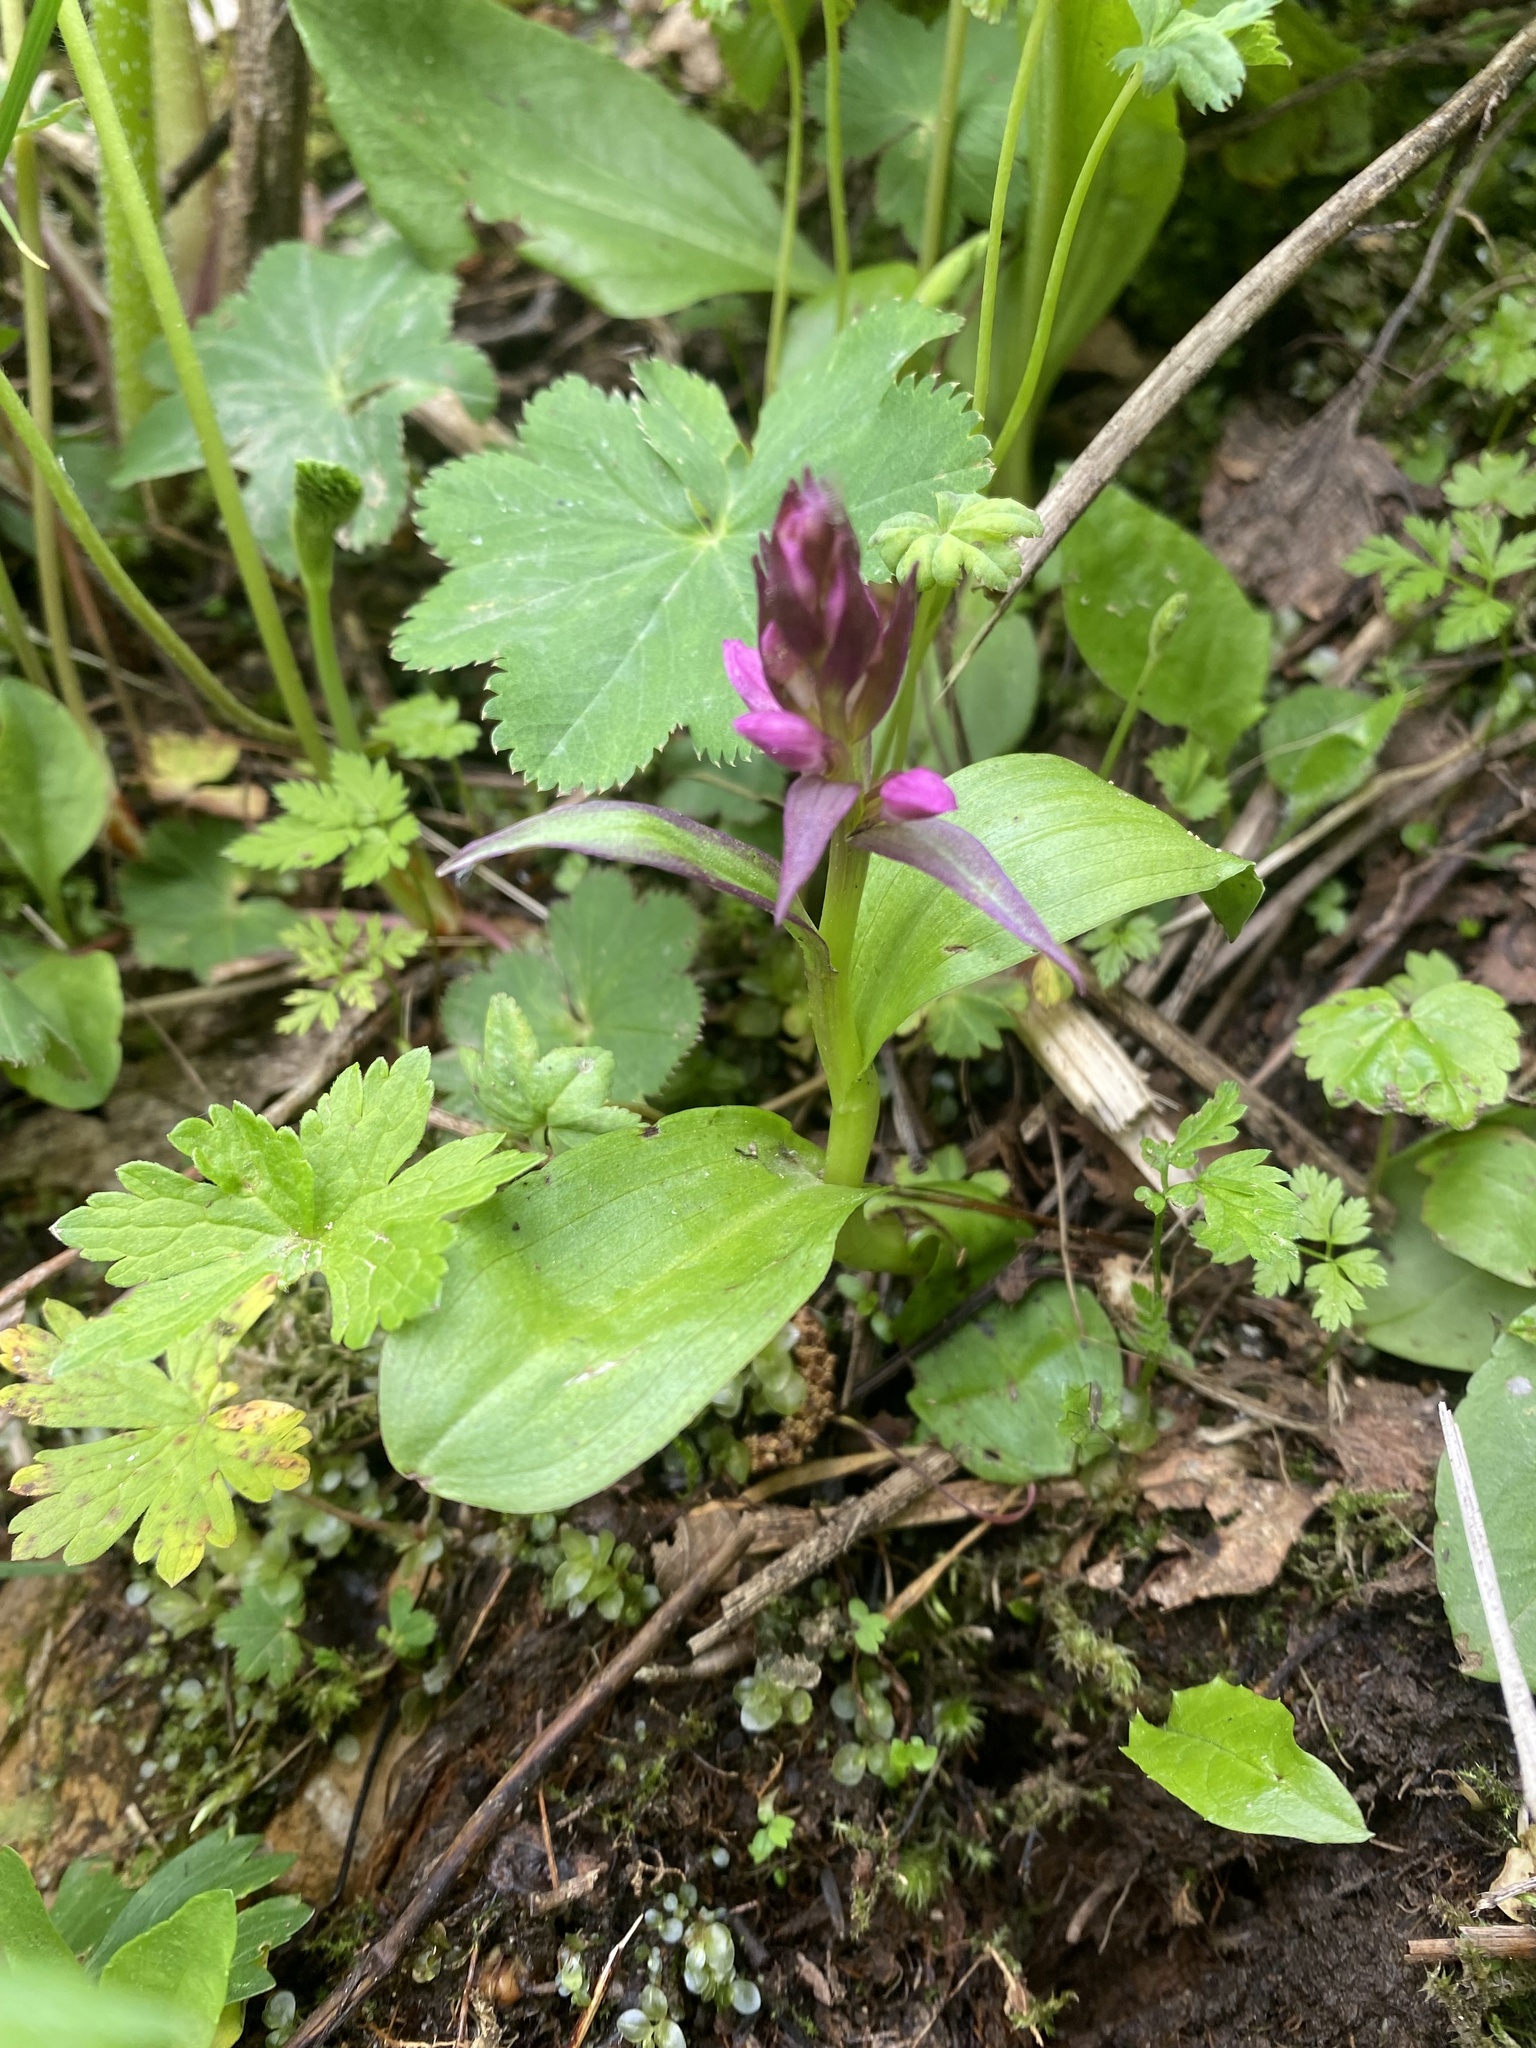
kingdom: Plantae
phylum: Tracheophyta
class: Liliopsida
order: Asparagales
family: Orchidaceae
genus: Dactylorhiza
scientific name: Dactylorhiza euxina
